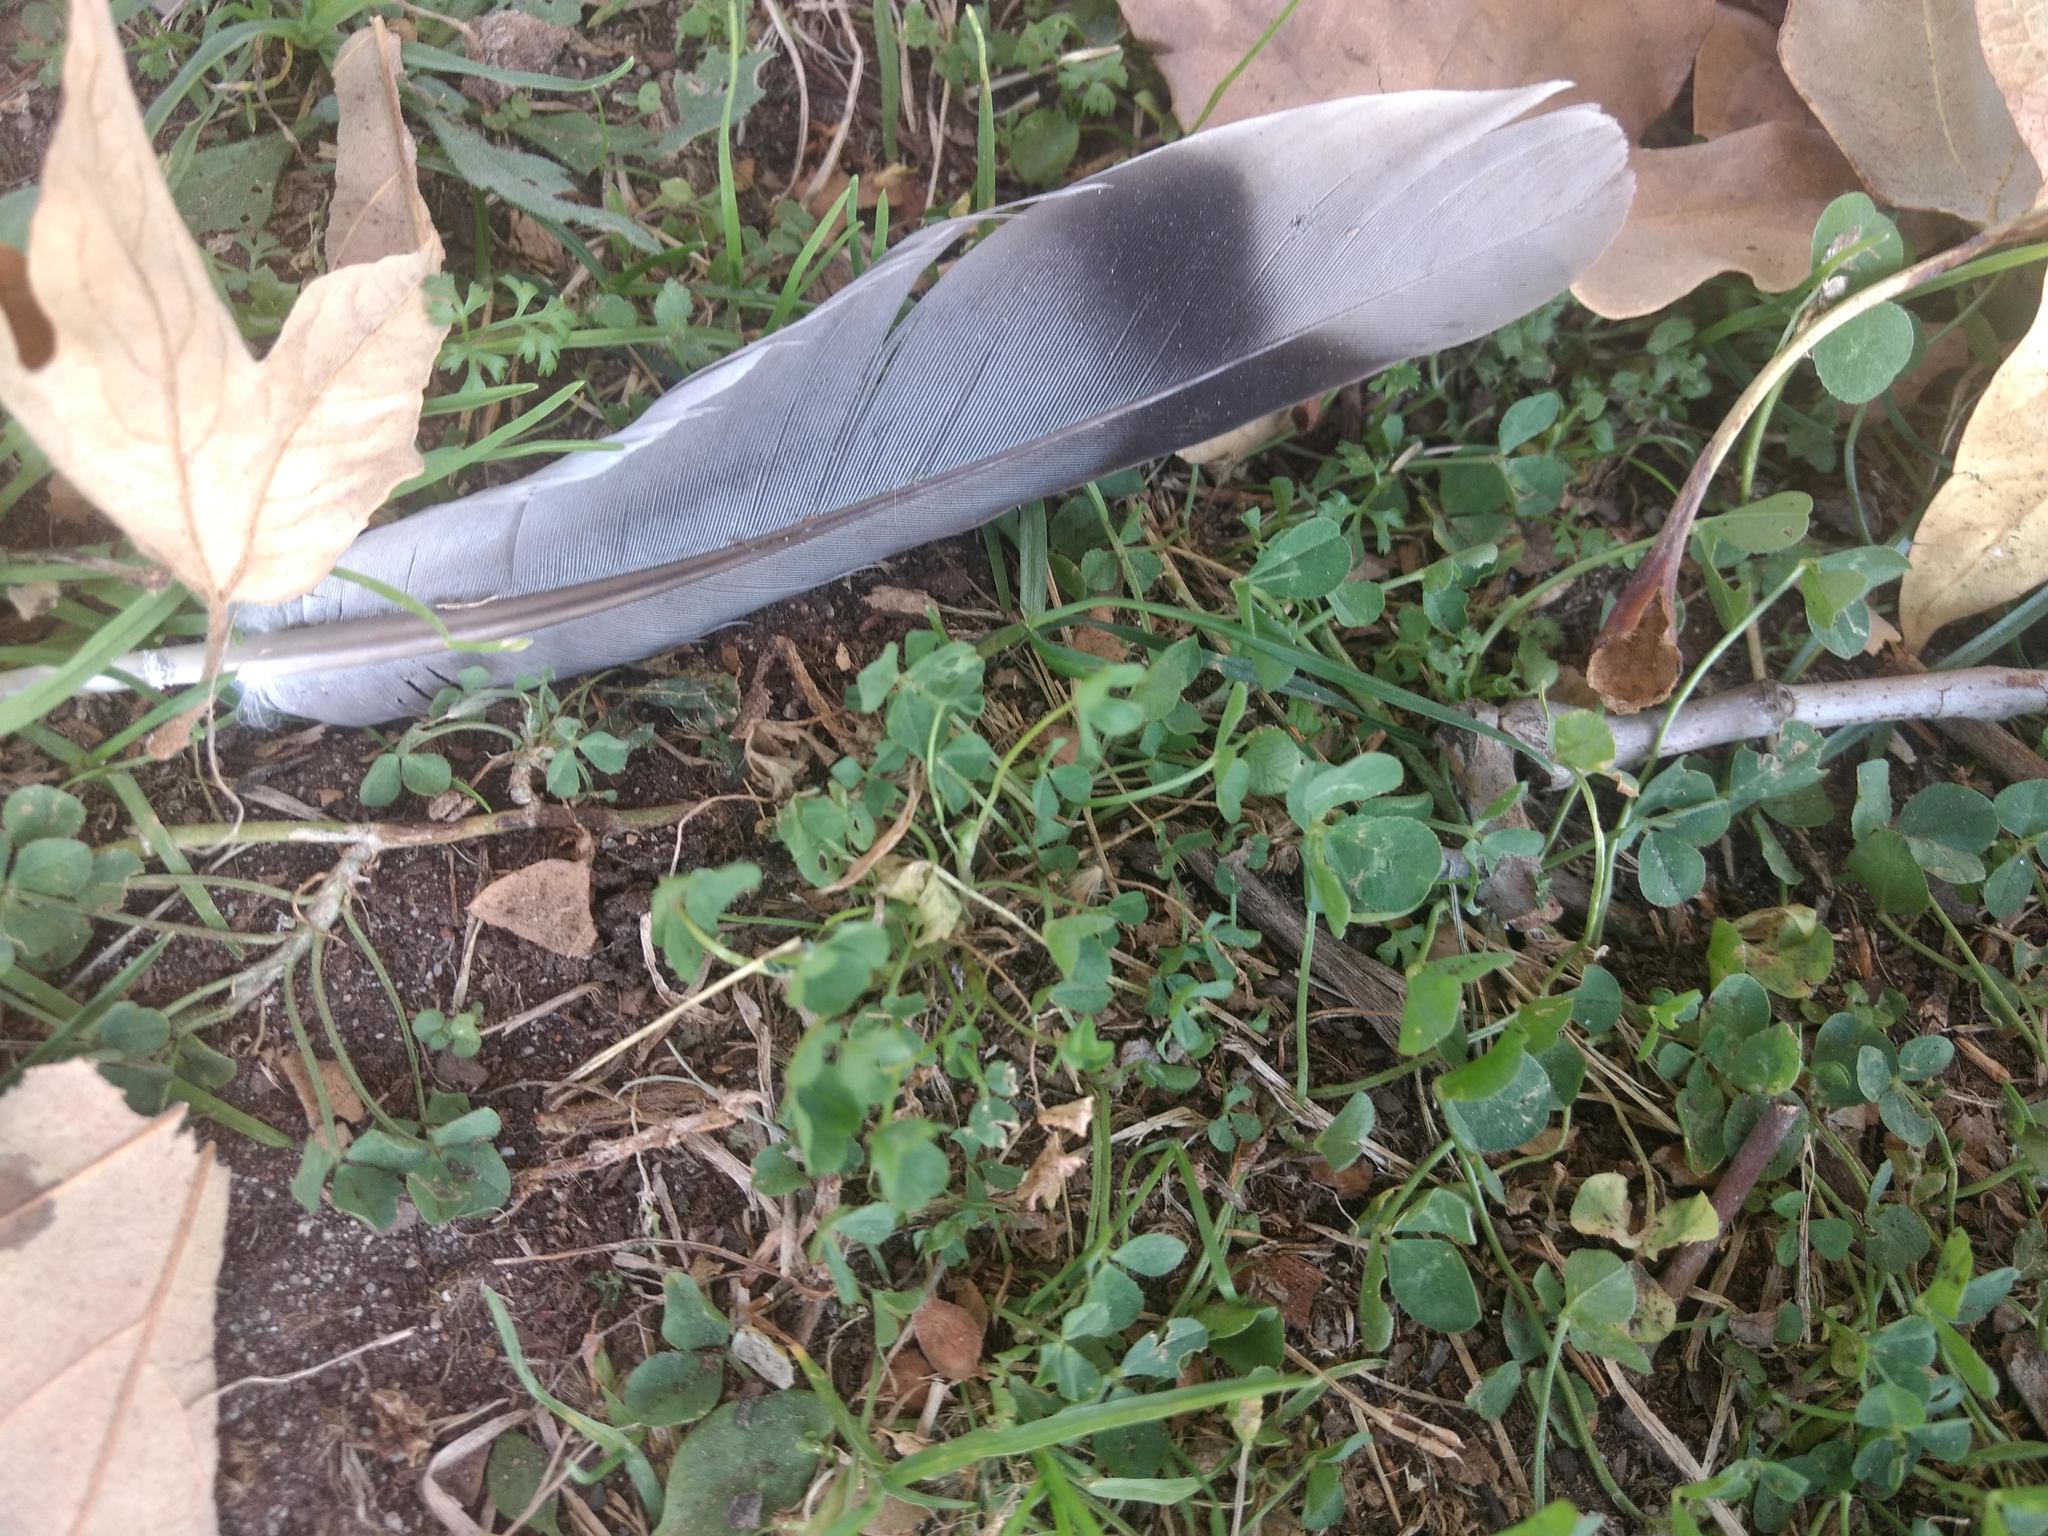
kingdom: Animalia
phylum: Chordata
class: Aves
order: Columbiformes
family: Columbidae
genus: Patagioenas
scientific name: Patagioenas fasciata
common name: Band-tailed pigeon
